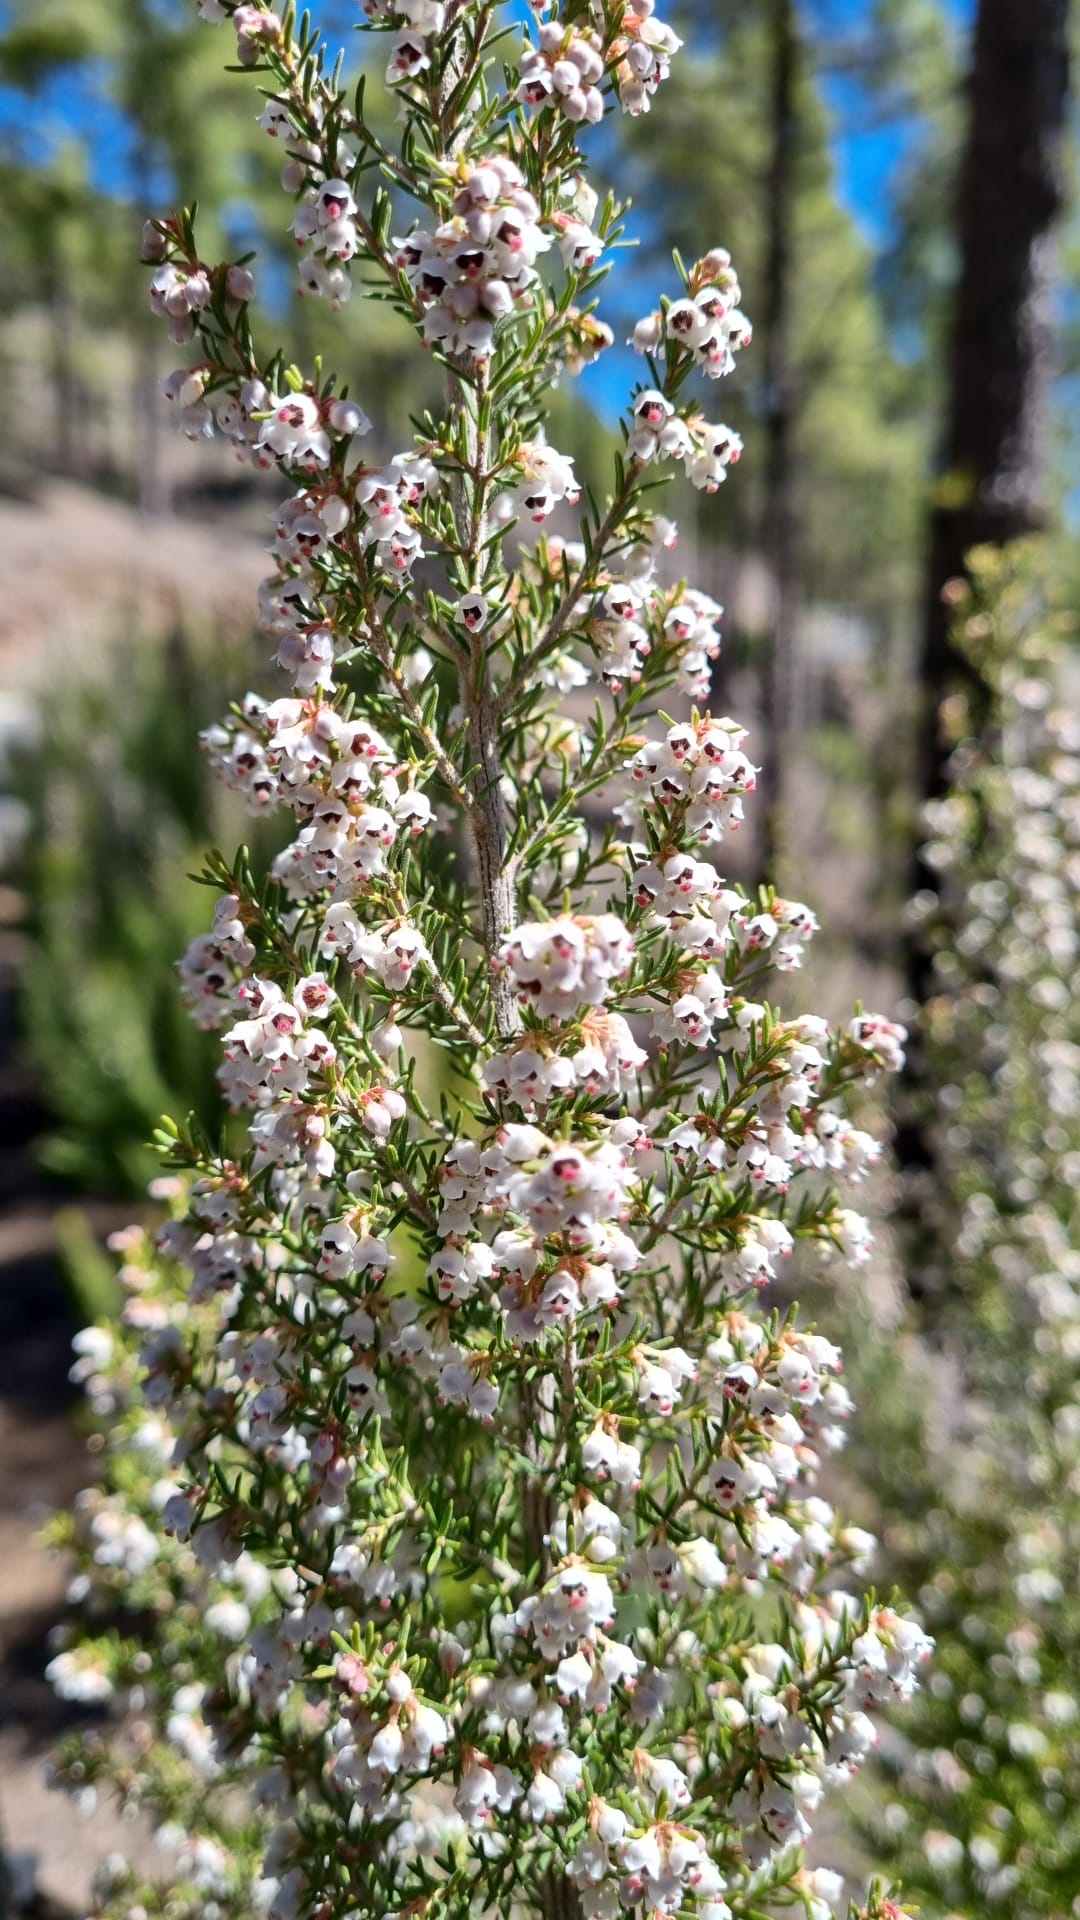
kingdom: Plantae
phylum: Tracheophyta
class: Magnoliopsida
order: Ericales
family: Ericaceae
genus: Erica
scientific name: Erica canariensis
